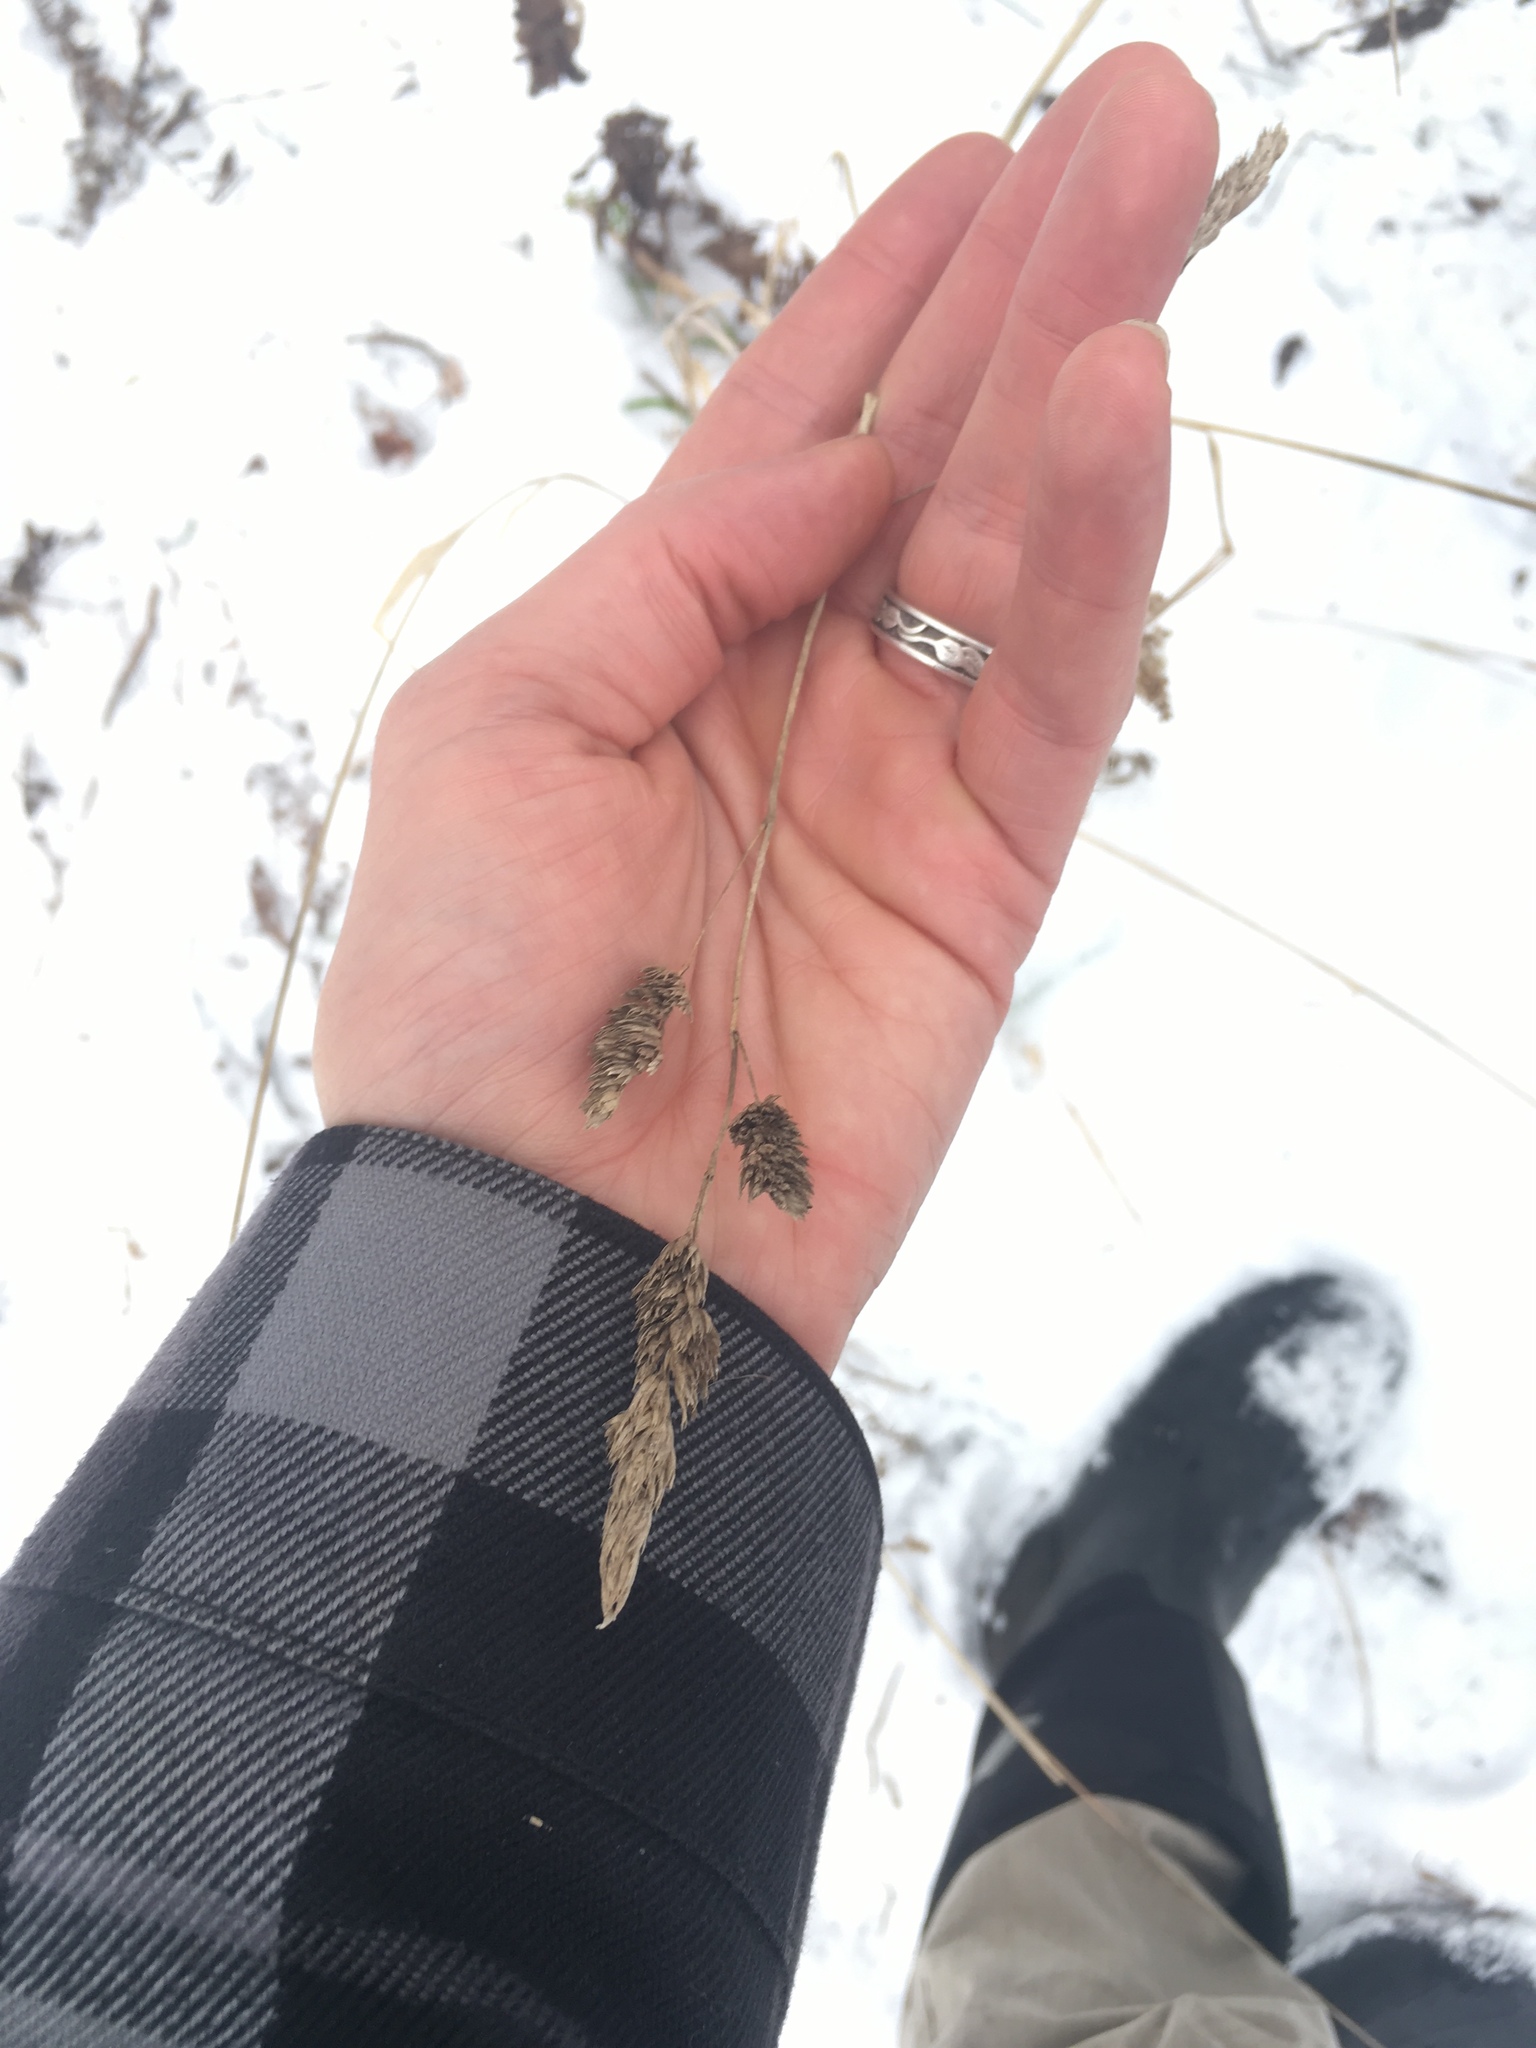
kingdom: Plantae
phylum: Tracheophyta
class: Liliopsida
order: Poales
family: Poaceae
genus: Dactylis
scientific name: Dactylis glomerata
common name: Orchardgrass
